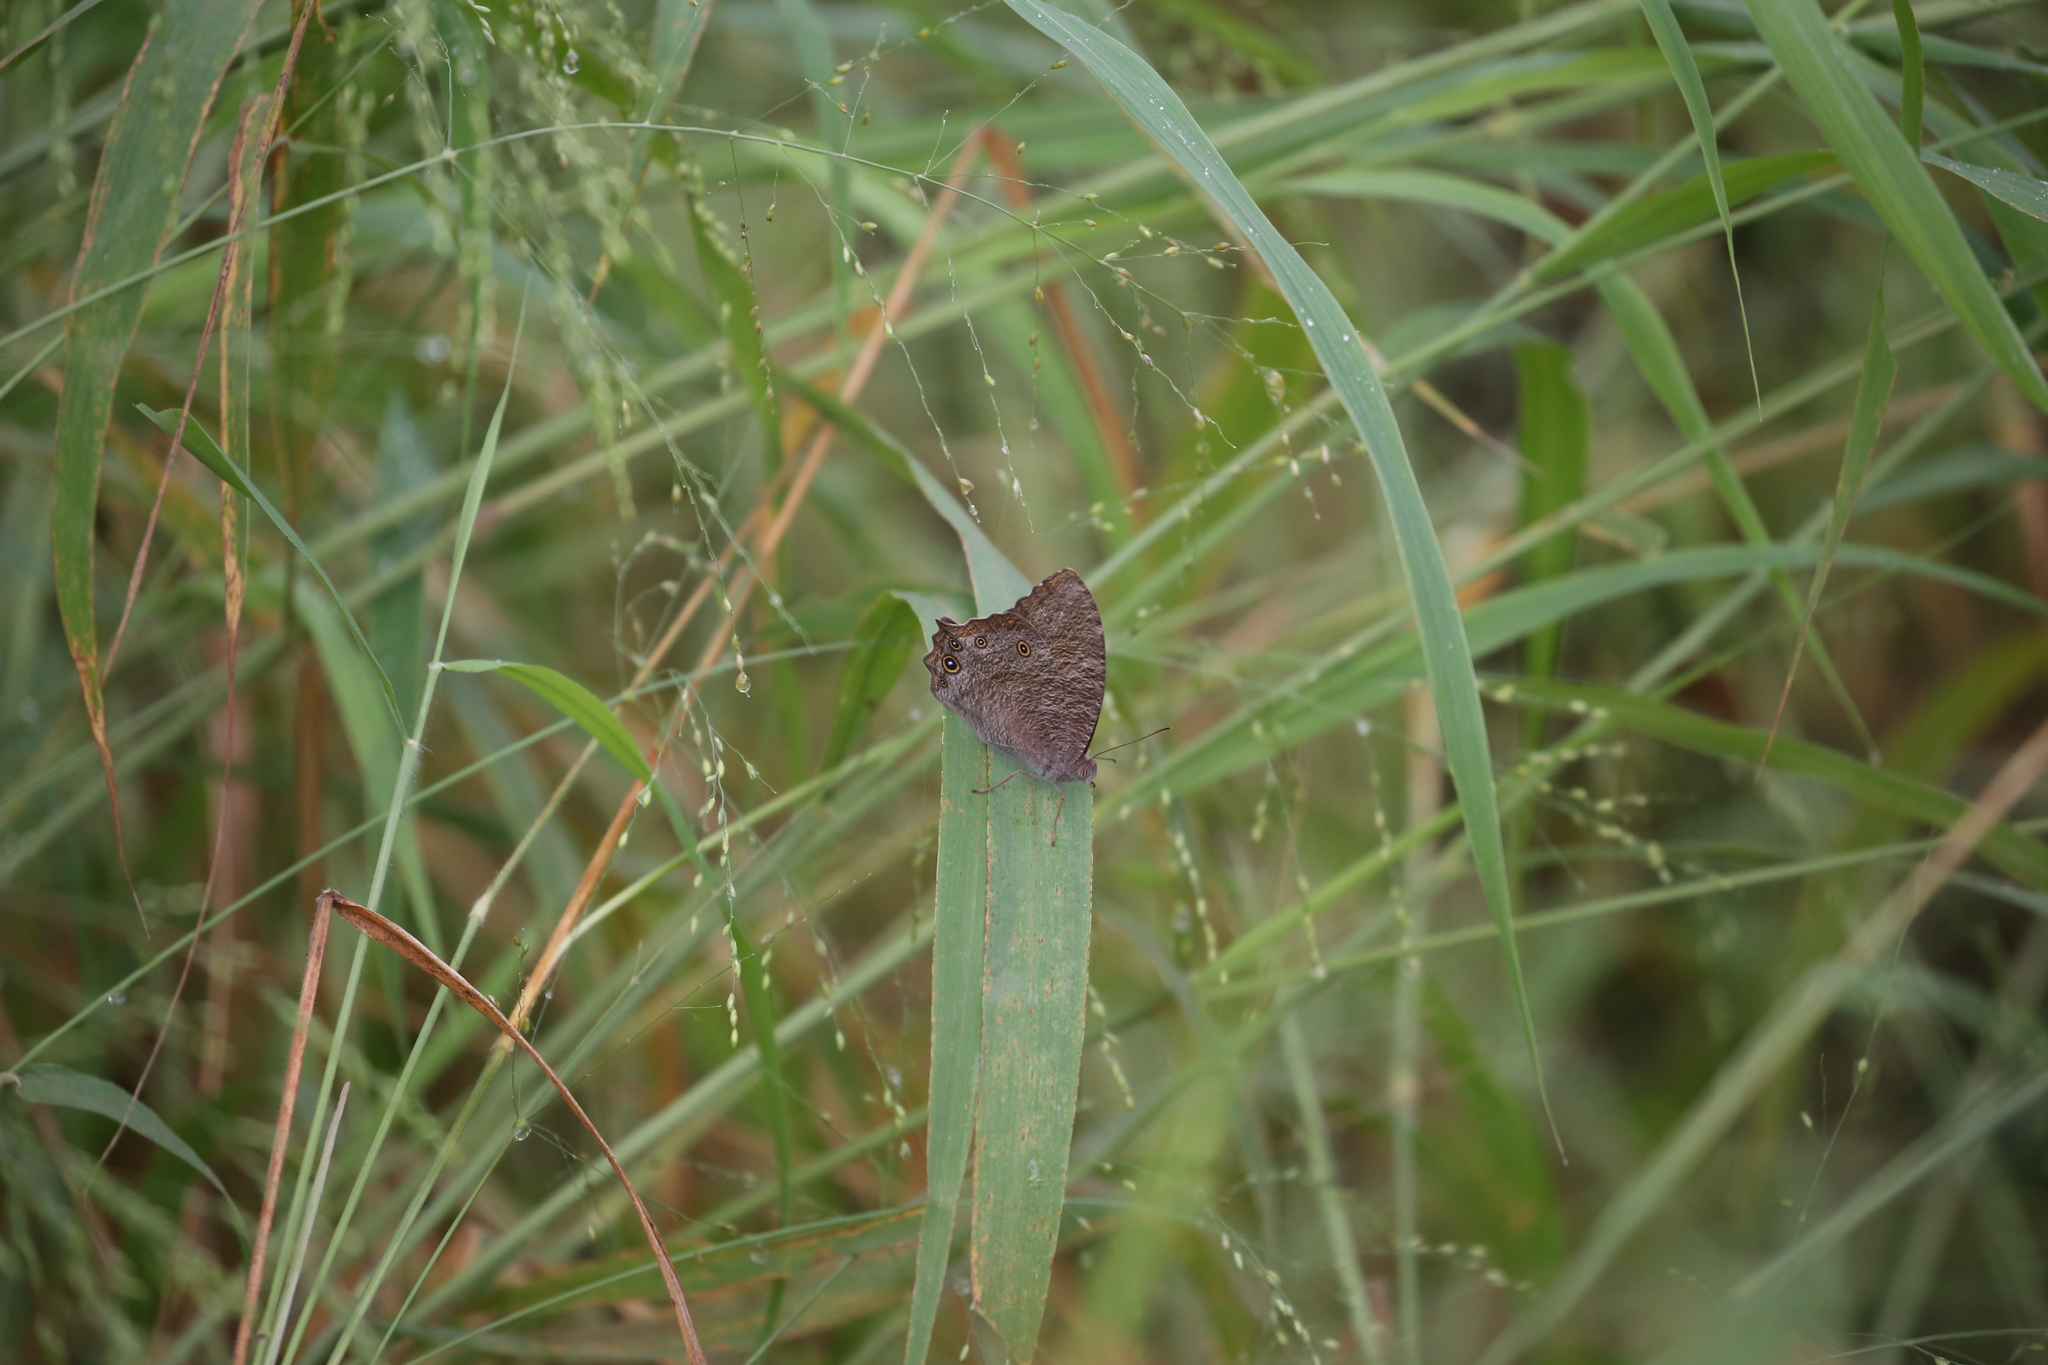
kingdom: Animalia
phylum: Arthropoda
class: Insecta
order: Lepidoptera
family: Nymphalidae
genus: Melanitis
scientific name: Melanitis leda
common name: Twilight brown
